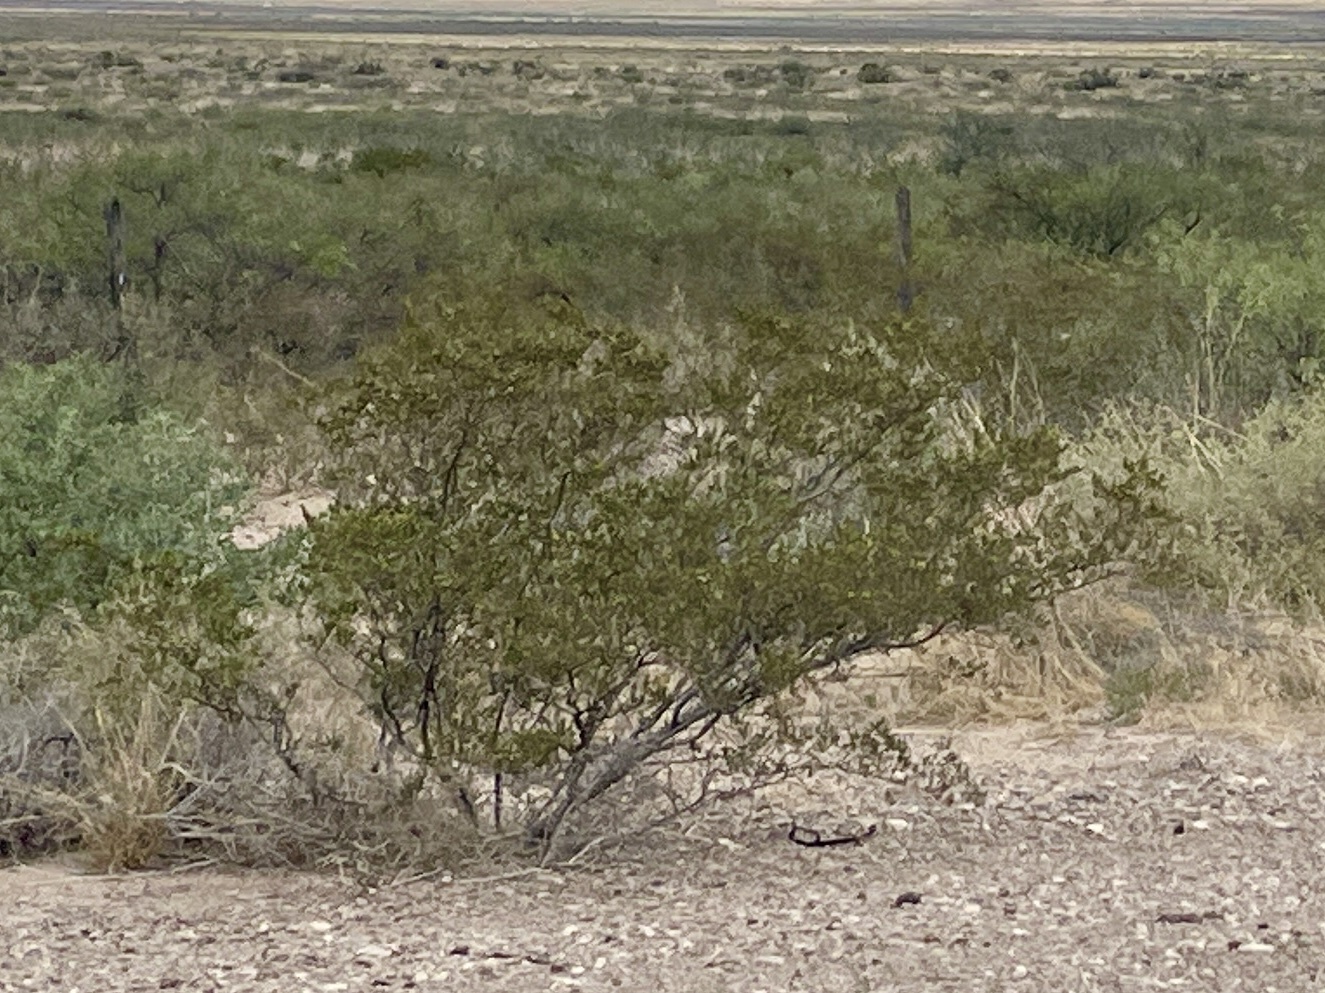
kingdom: Plantae
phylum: Tracheophyta
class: Magnoliopsida
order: Zygophyllales
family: Zygophyllaceae
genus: Larrea
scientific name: Larrea tridentata
